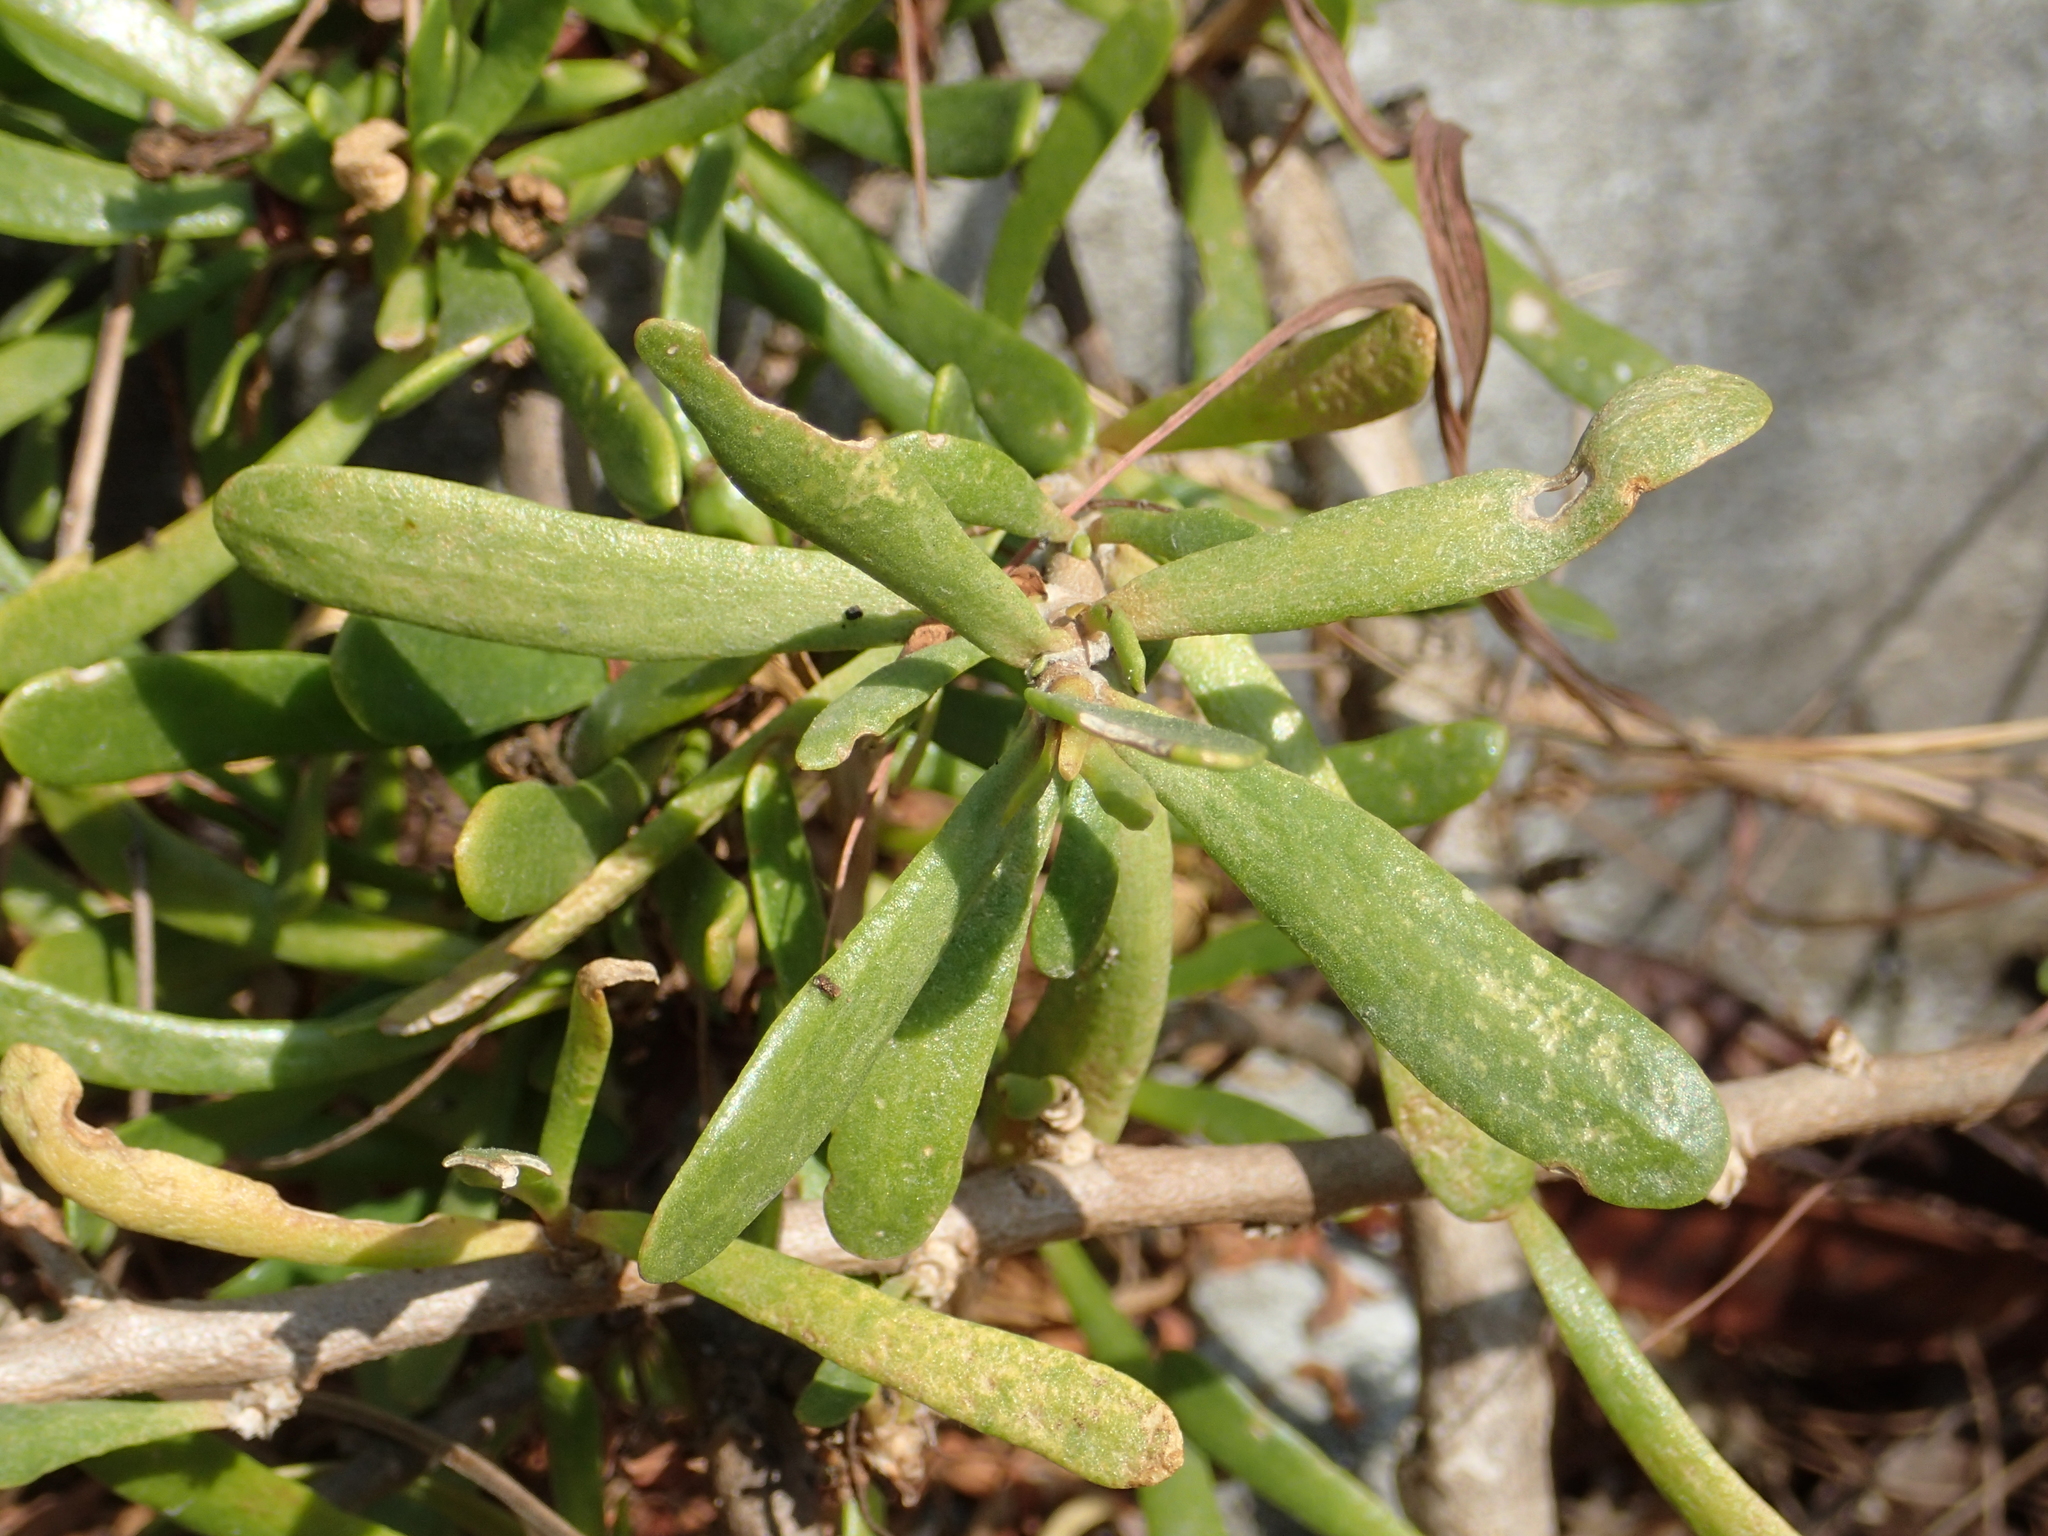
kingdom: Plantae
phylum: Tracheophyta
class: Magnoliopsida
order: Asterales
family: Goodeniaceae
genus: Scaevola
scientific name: Scaevola hainanensis
